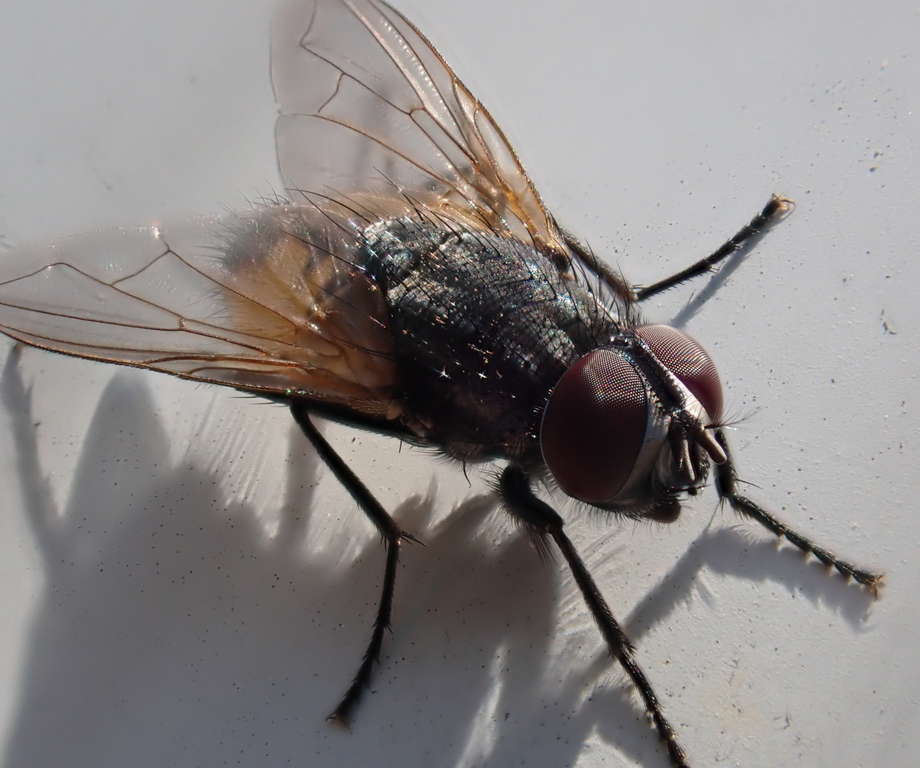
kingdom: Animalia
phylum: Arthropoda
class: Insecta
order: Diptera
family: Muscidae
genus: Musca
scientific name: Musca domestica
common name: House fly
